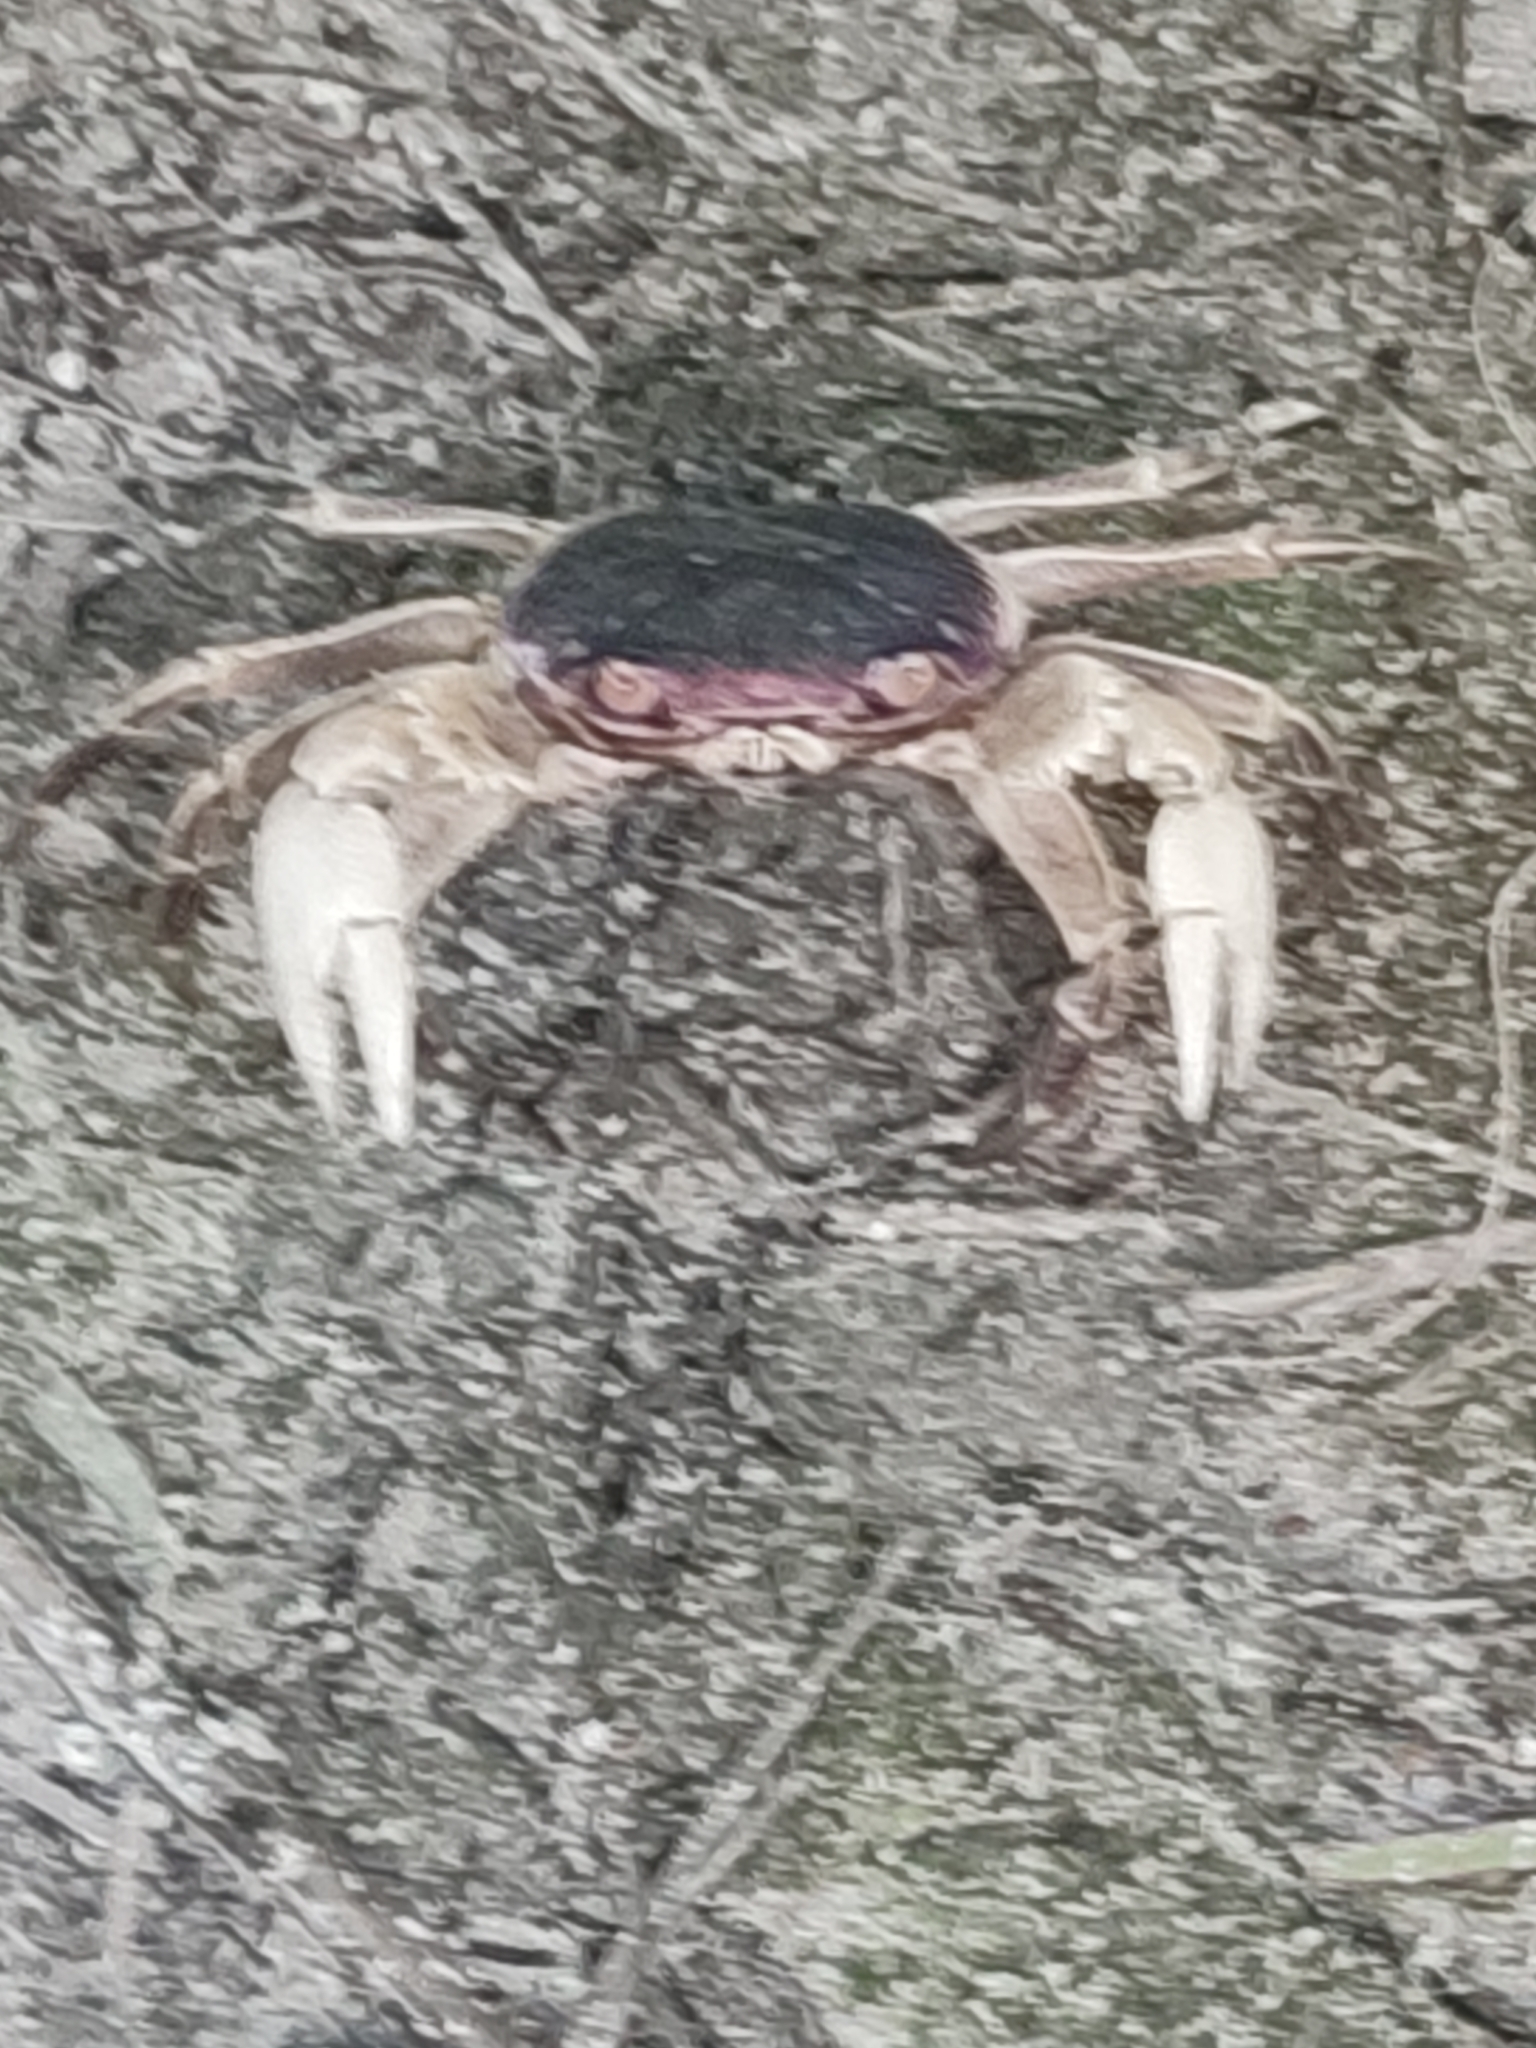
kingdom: Animalia
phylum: Arthropoda
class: Malacostraca
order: Decapoda
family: Grapsidae
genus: Geograpsus
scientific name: Geograpsus grayi
